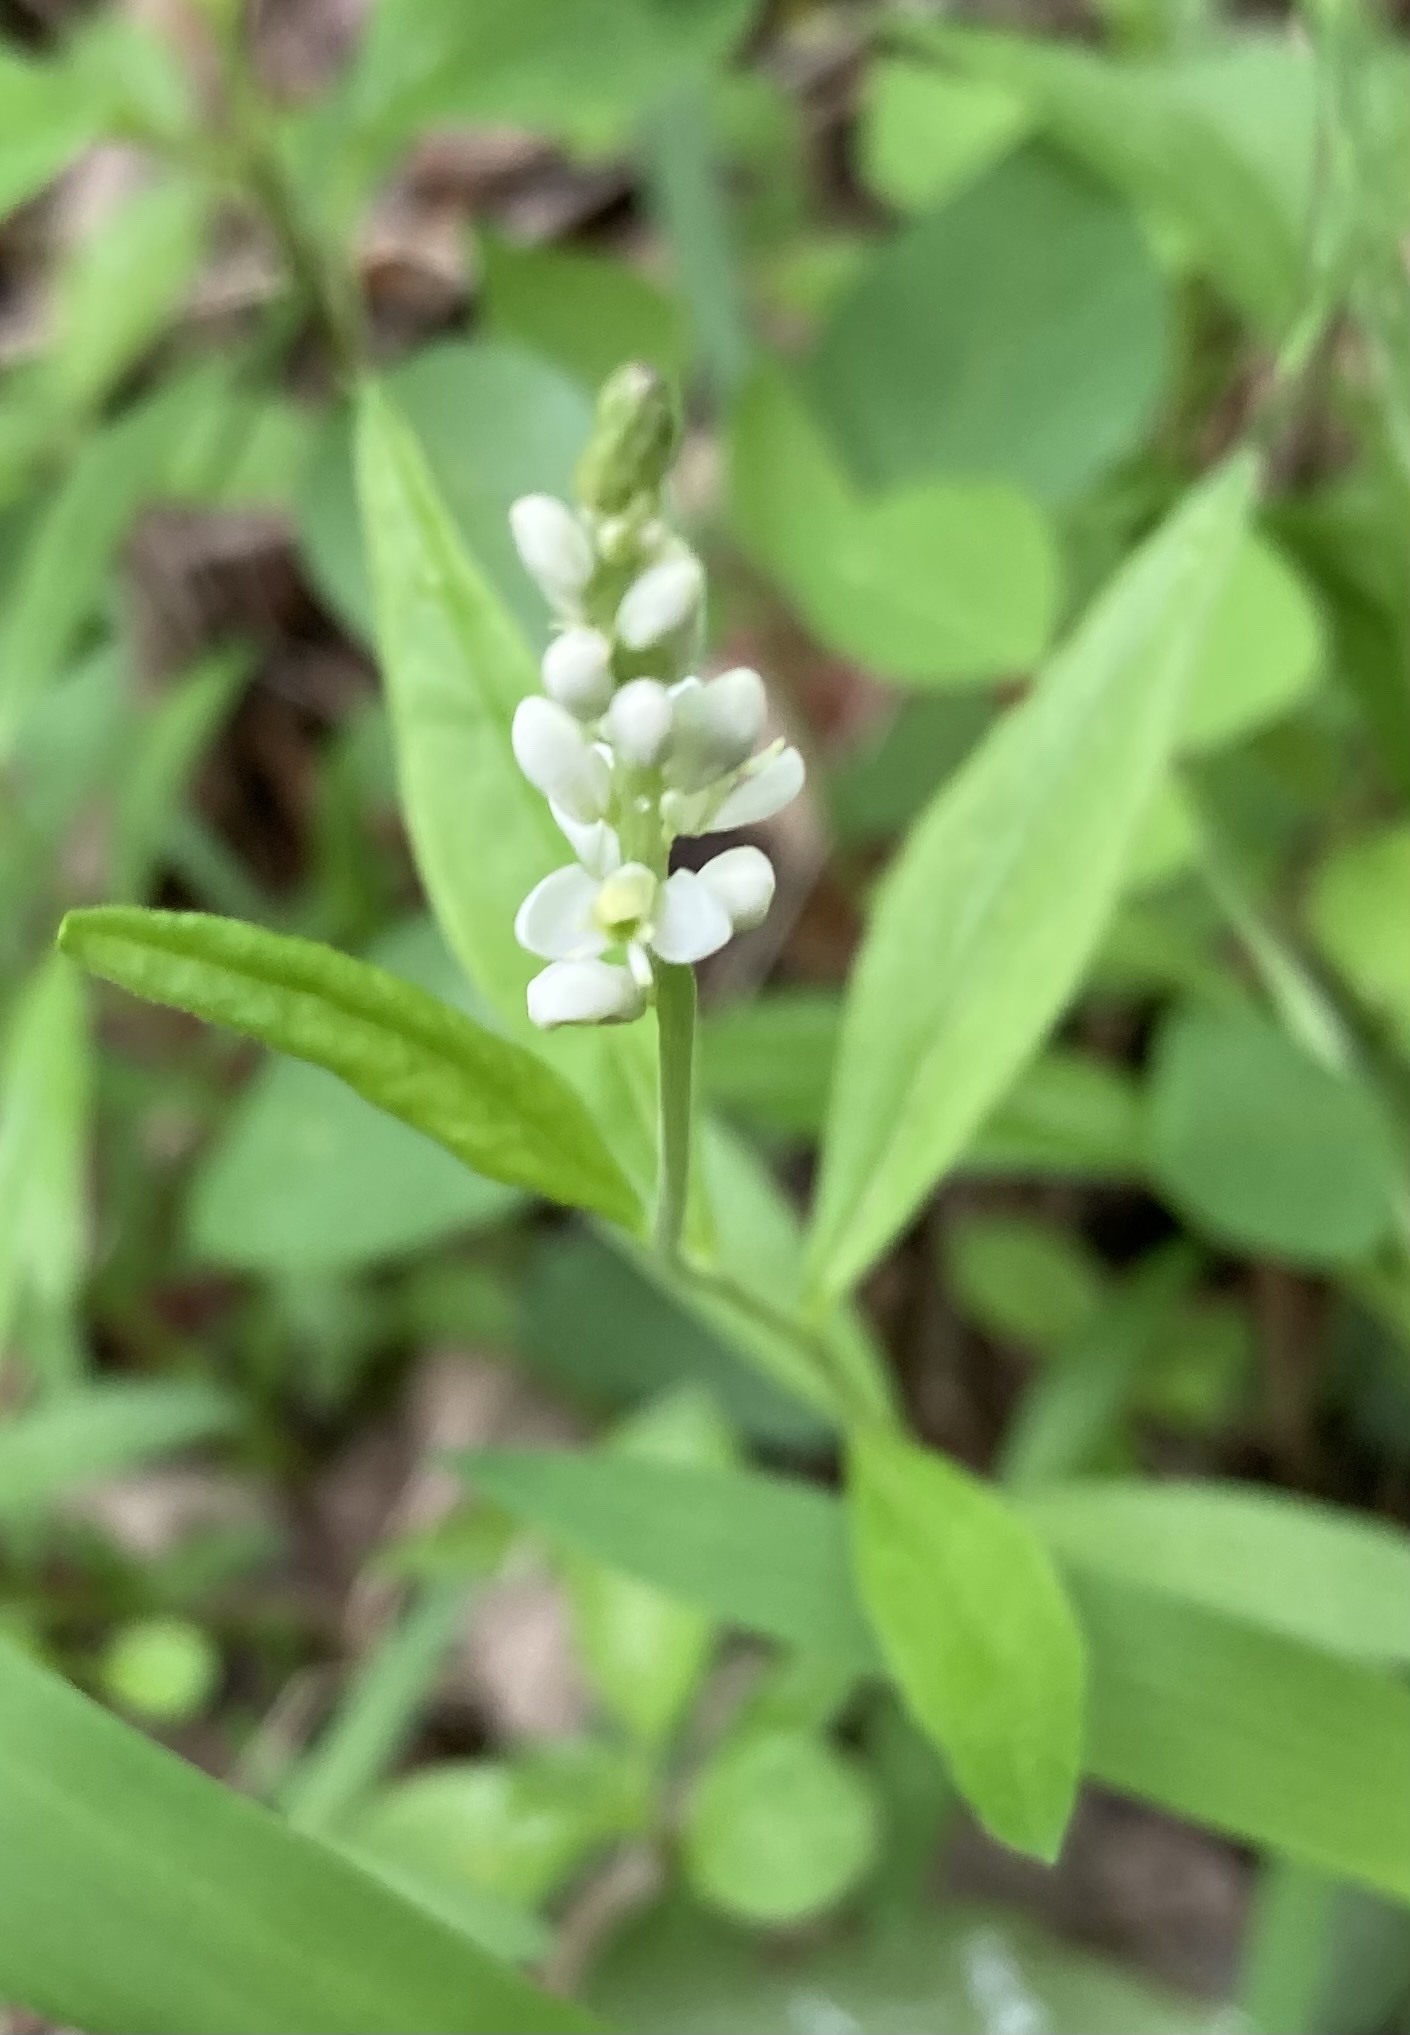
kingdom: Plantae
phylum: Tracheophyta
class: Magnoliopsida
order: Fabales
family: Polygalaceae
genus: Polygala
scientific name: Polygala senega
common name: Seneca snakeroot
